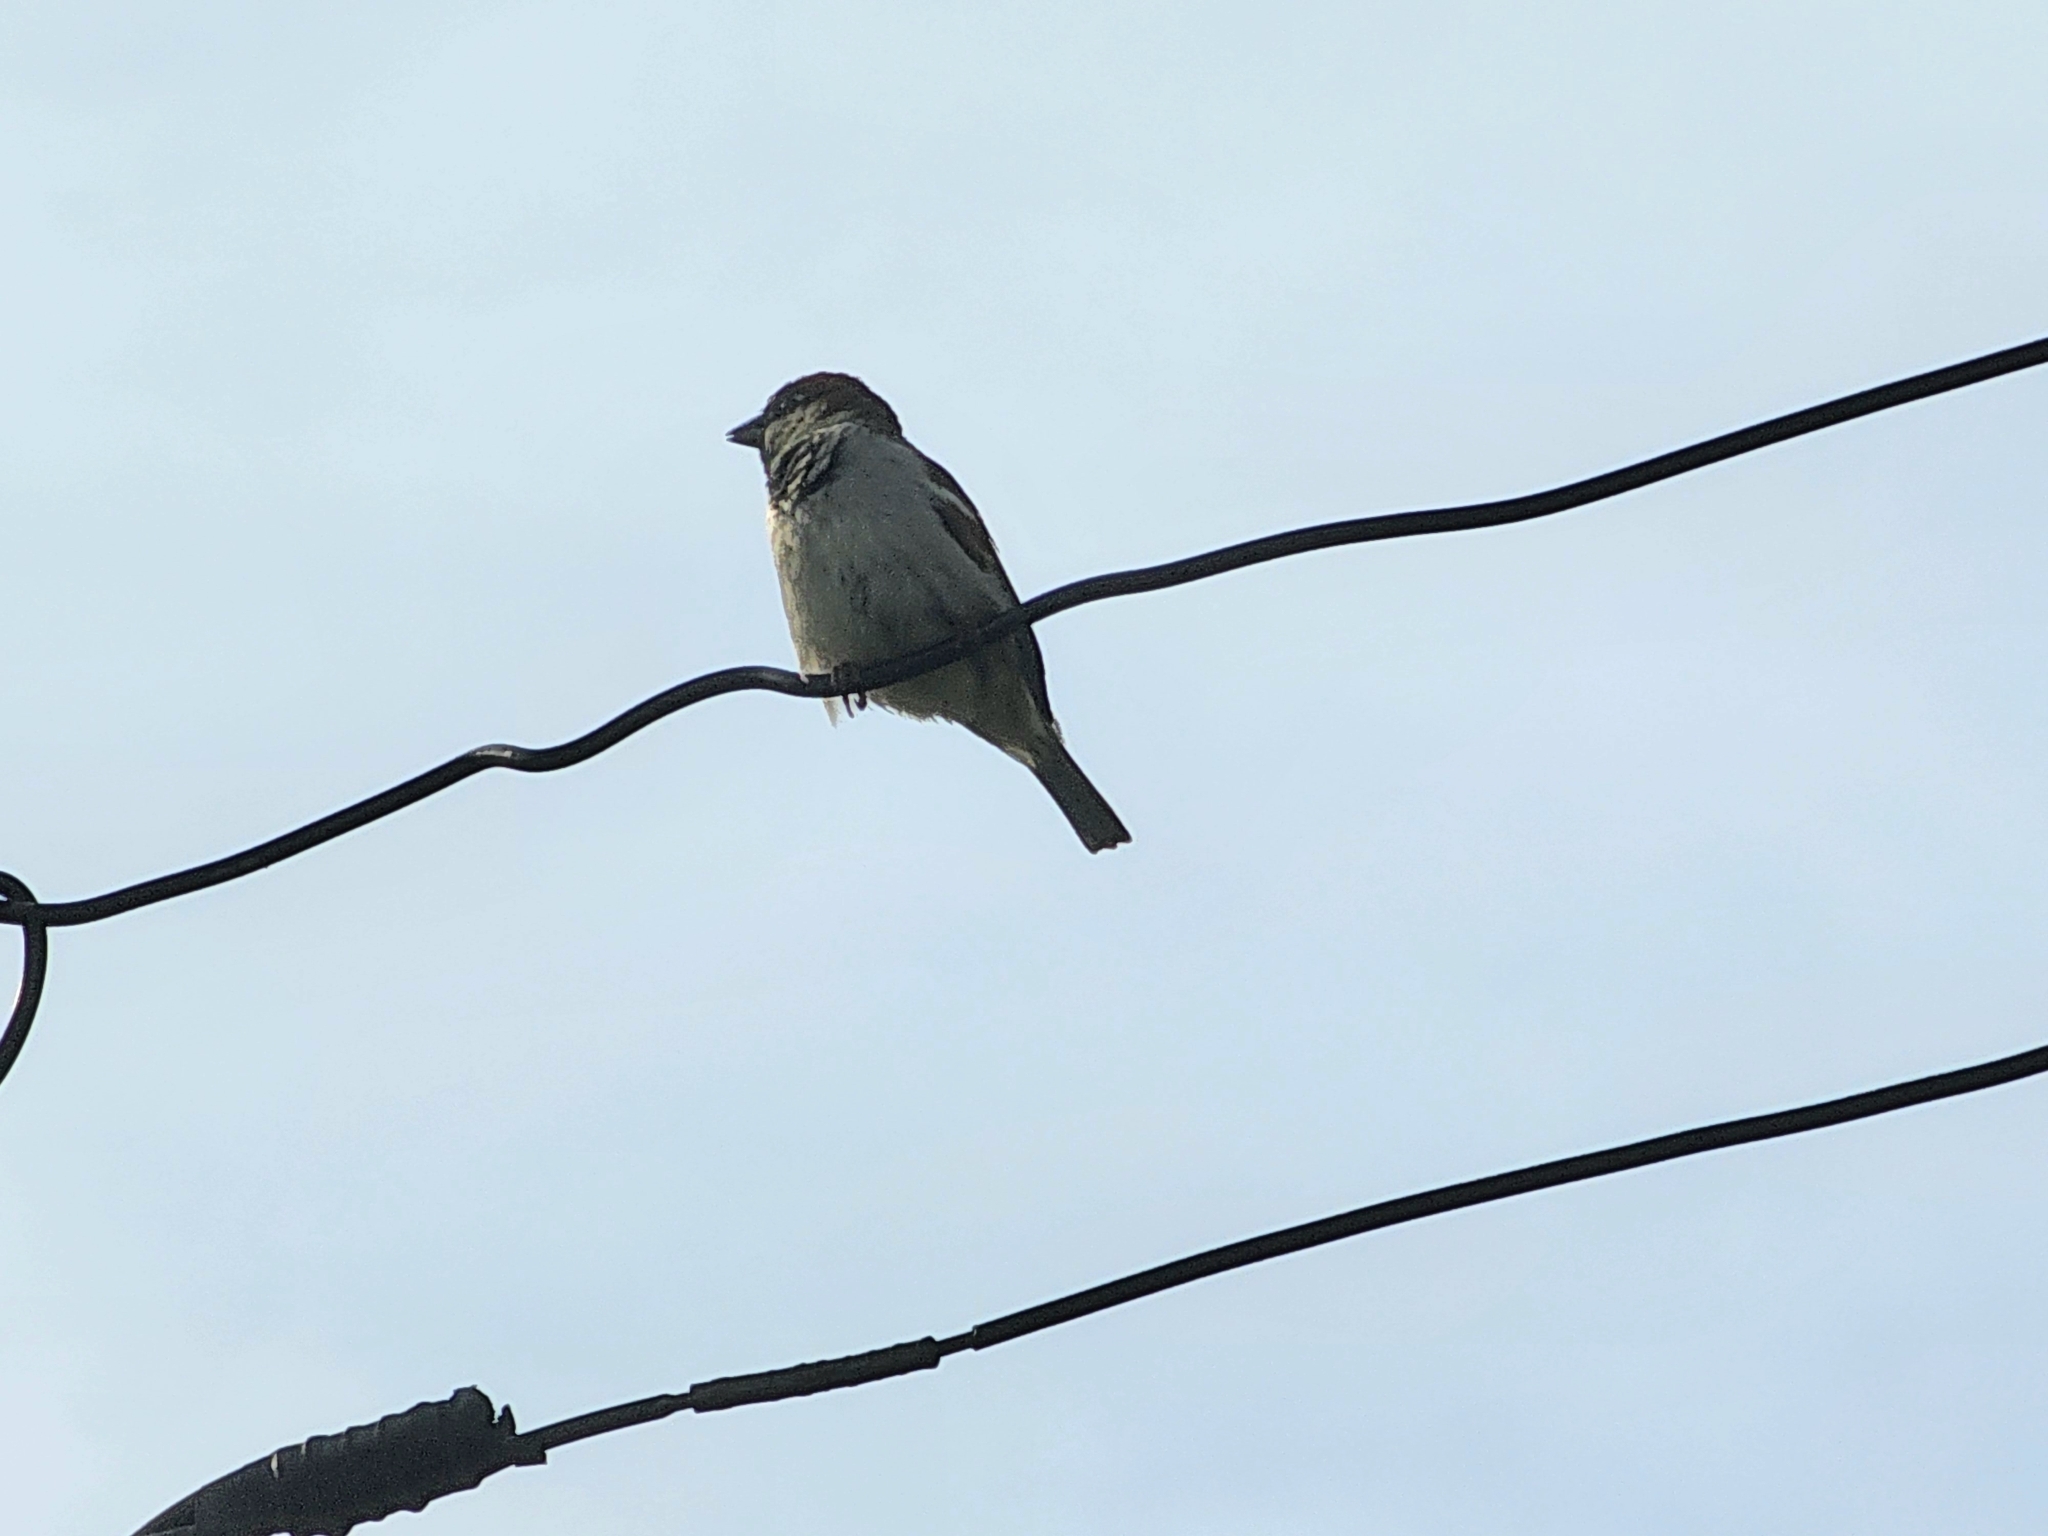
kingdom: Animalia
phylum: Chordata
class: Aves
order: Passeriformes
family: Passeridae
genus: Passer
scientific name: Passer domesticus
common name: House sparrow
